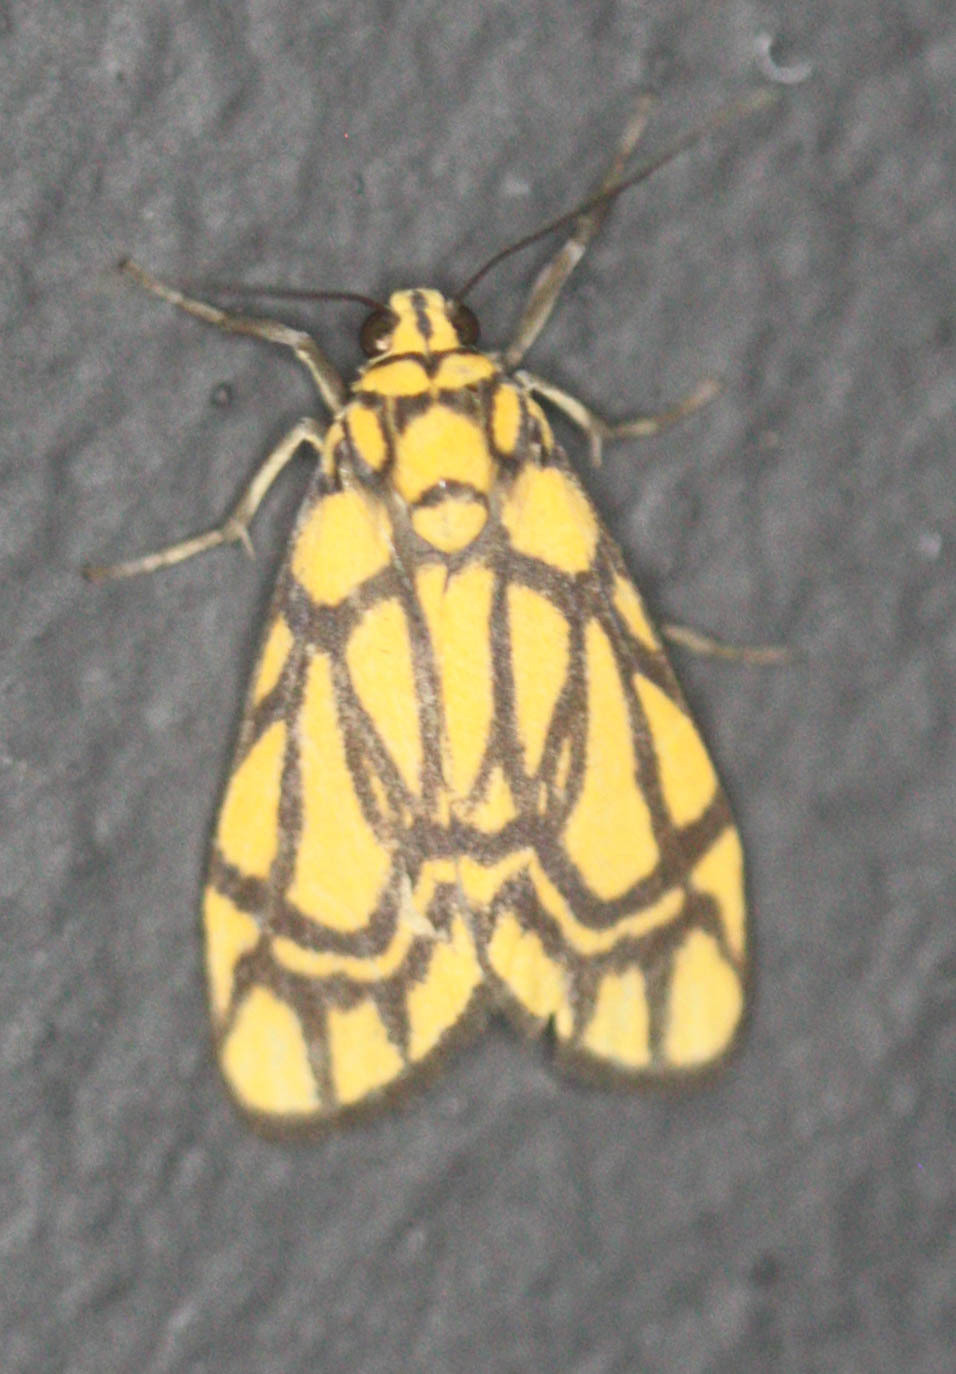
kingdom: Animalia
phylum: Arthropoda
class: Insecta
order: Lepidoptera
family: Erebidae
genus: Cyme
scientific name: Cyme euprepioides
